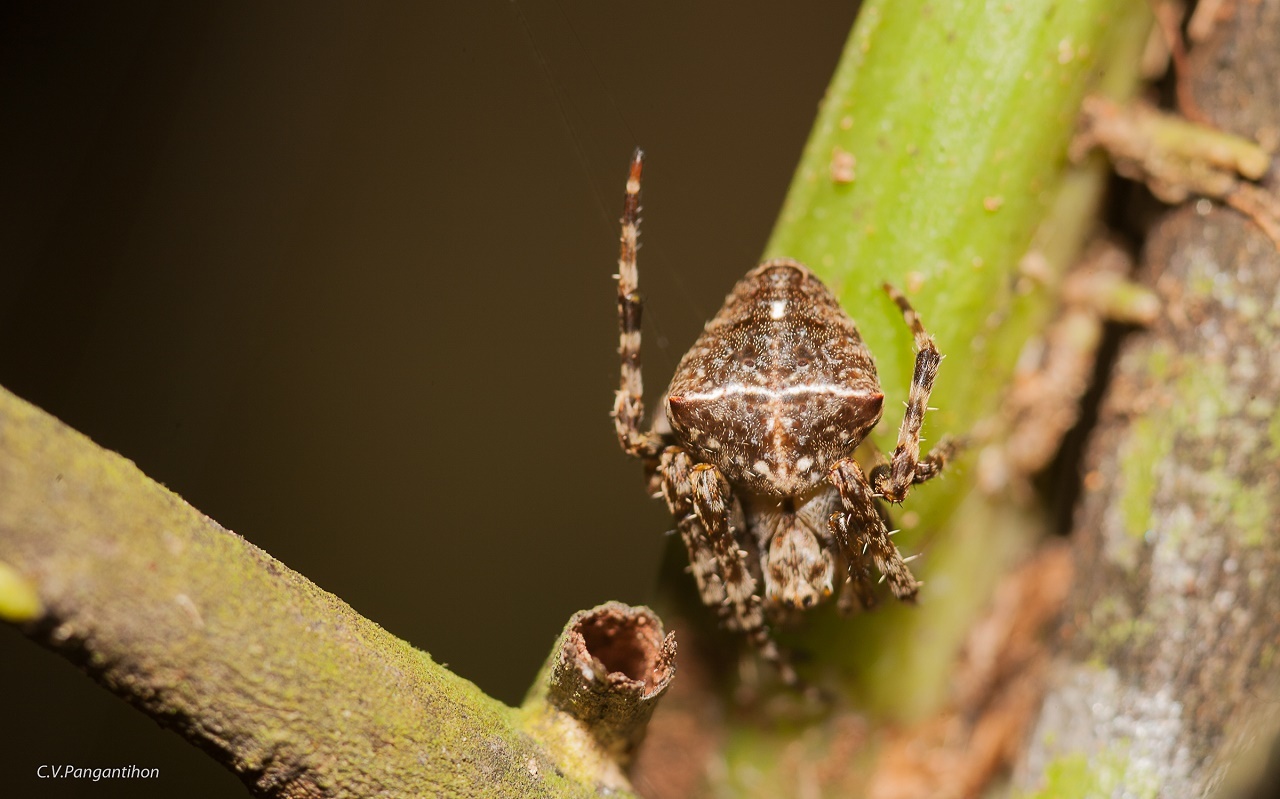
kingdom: Animalia
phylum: Arthropoda
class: Arachnida
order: Araneae
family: Araneidae
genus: Parawixia
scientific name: Parawixia dehaani
